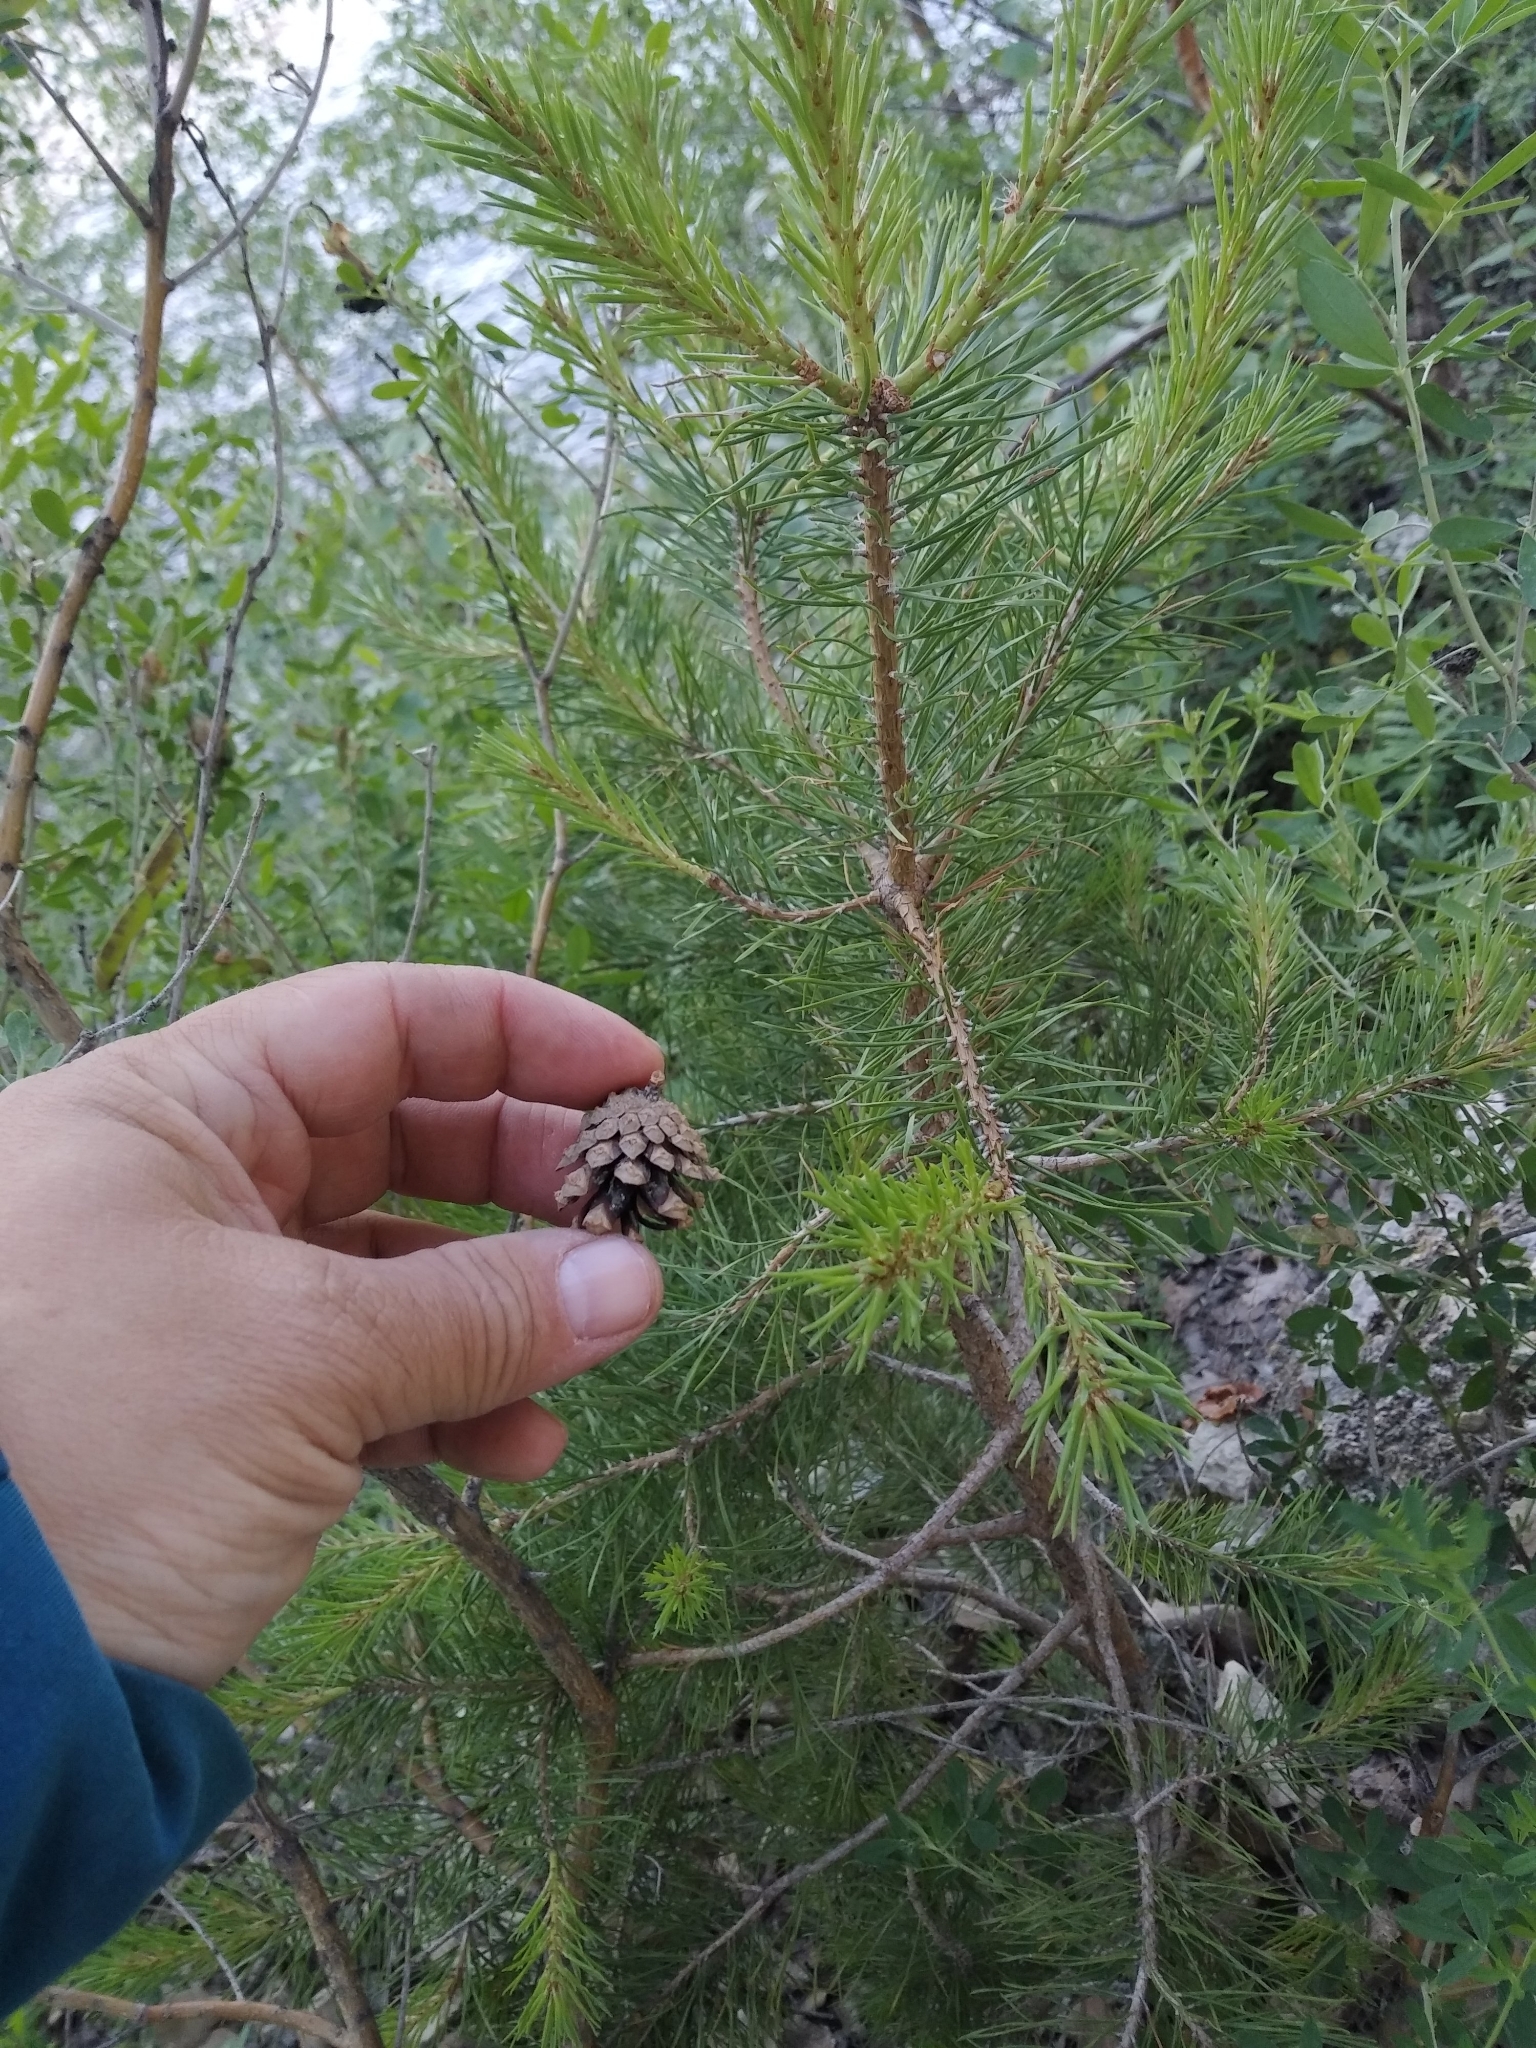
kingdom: Plantae
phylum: Tracheophyta
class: Pinopsida
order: Pinales
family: Pinaceae
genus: Pinus
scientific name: Pinus sylvestris
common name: Scots pine
